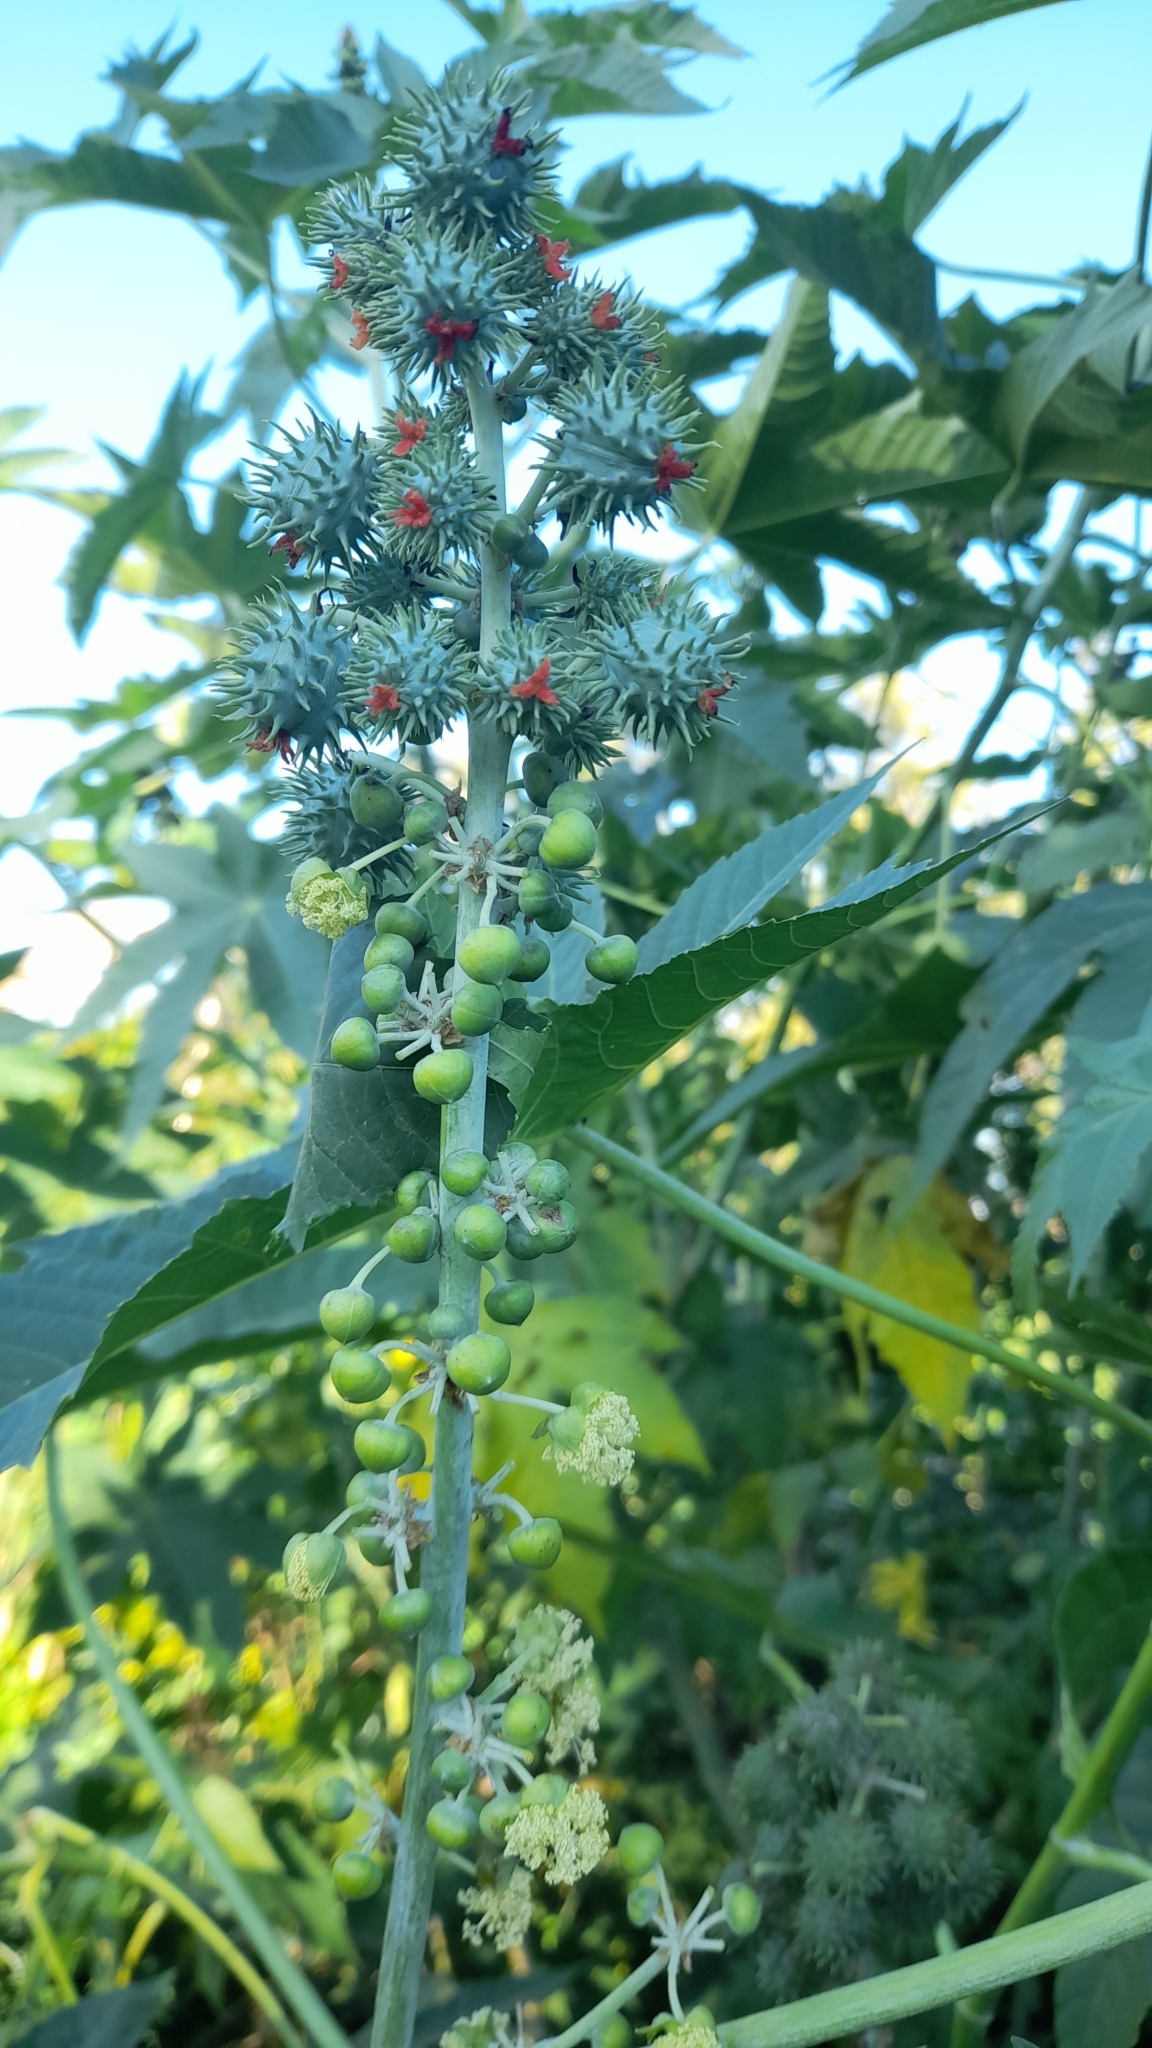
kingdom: Plantae
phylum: Tracheophyta
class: Magnoliopsida
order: Malpighiales
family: Euphorbiaceae
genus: Ricinus
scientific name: Ricinus communis
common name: Castor-oil-plant
